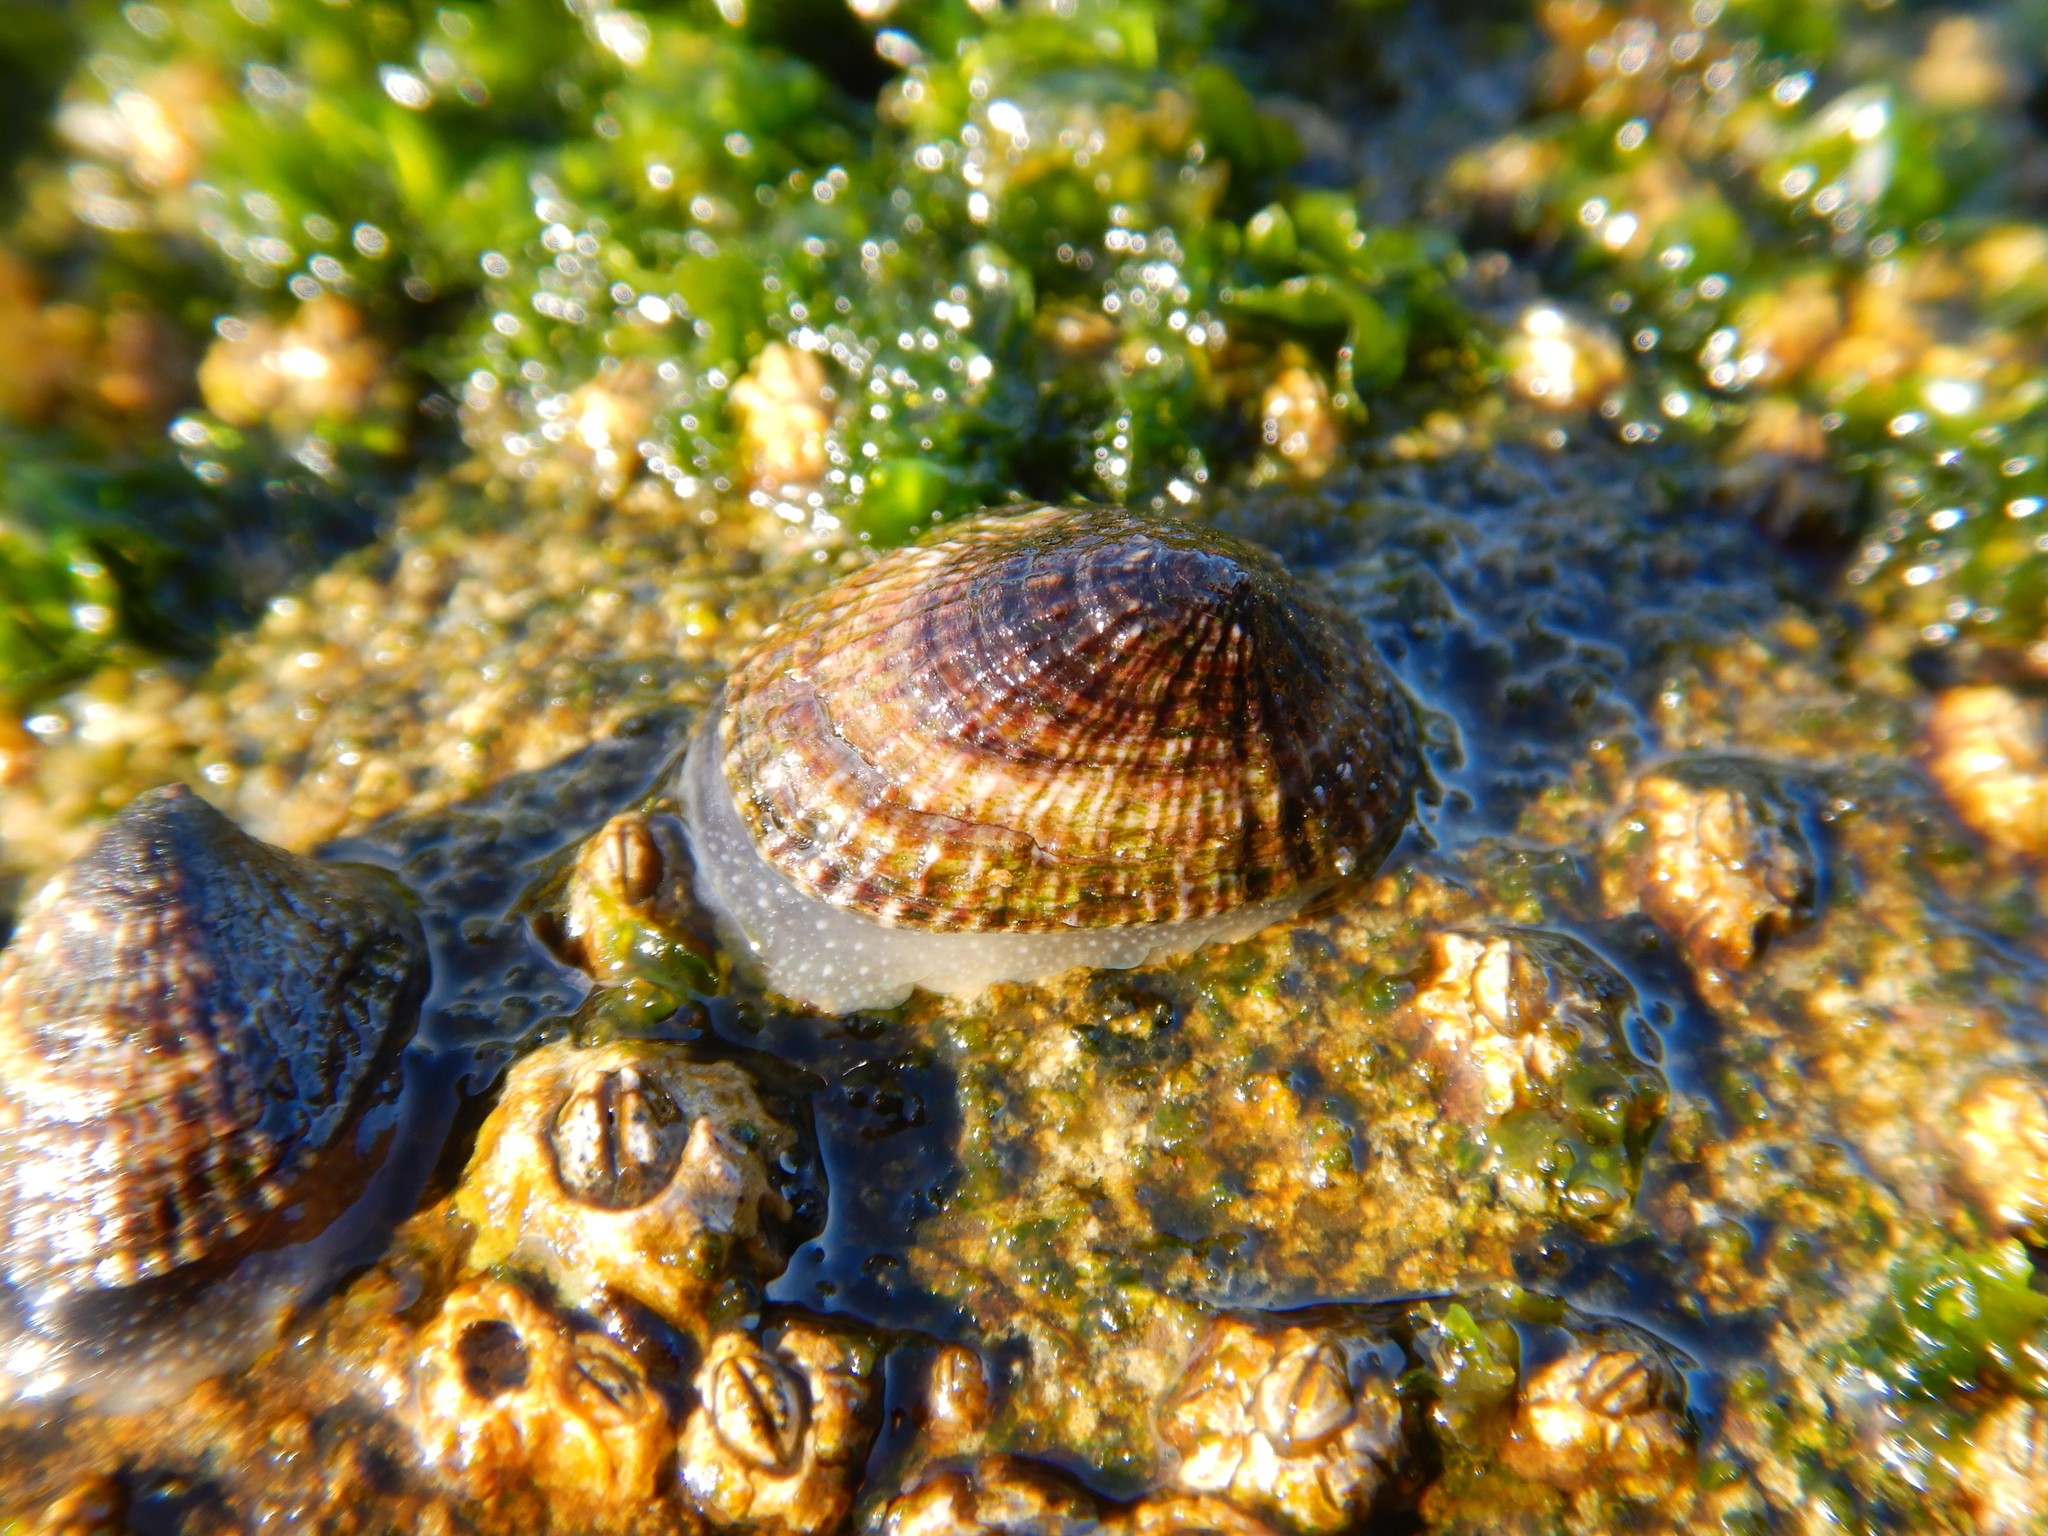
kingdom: Animalia
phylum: Mollusca
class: Gastropoda
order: Siphonariida
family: Siphonariidae
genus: Siphonaria
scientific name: Siphonaria lessonii
